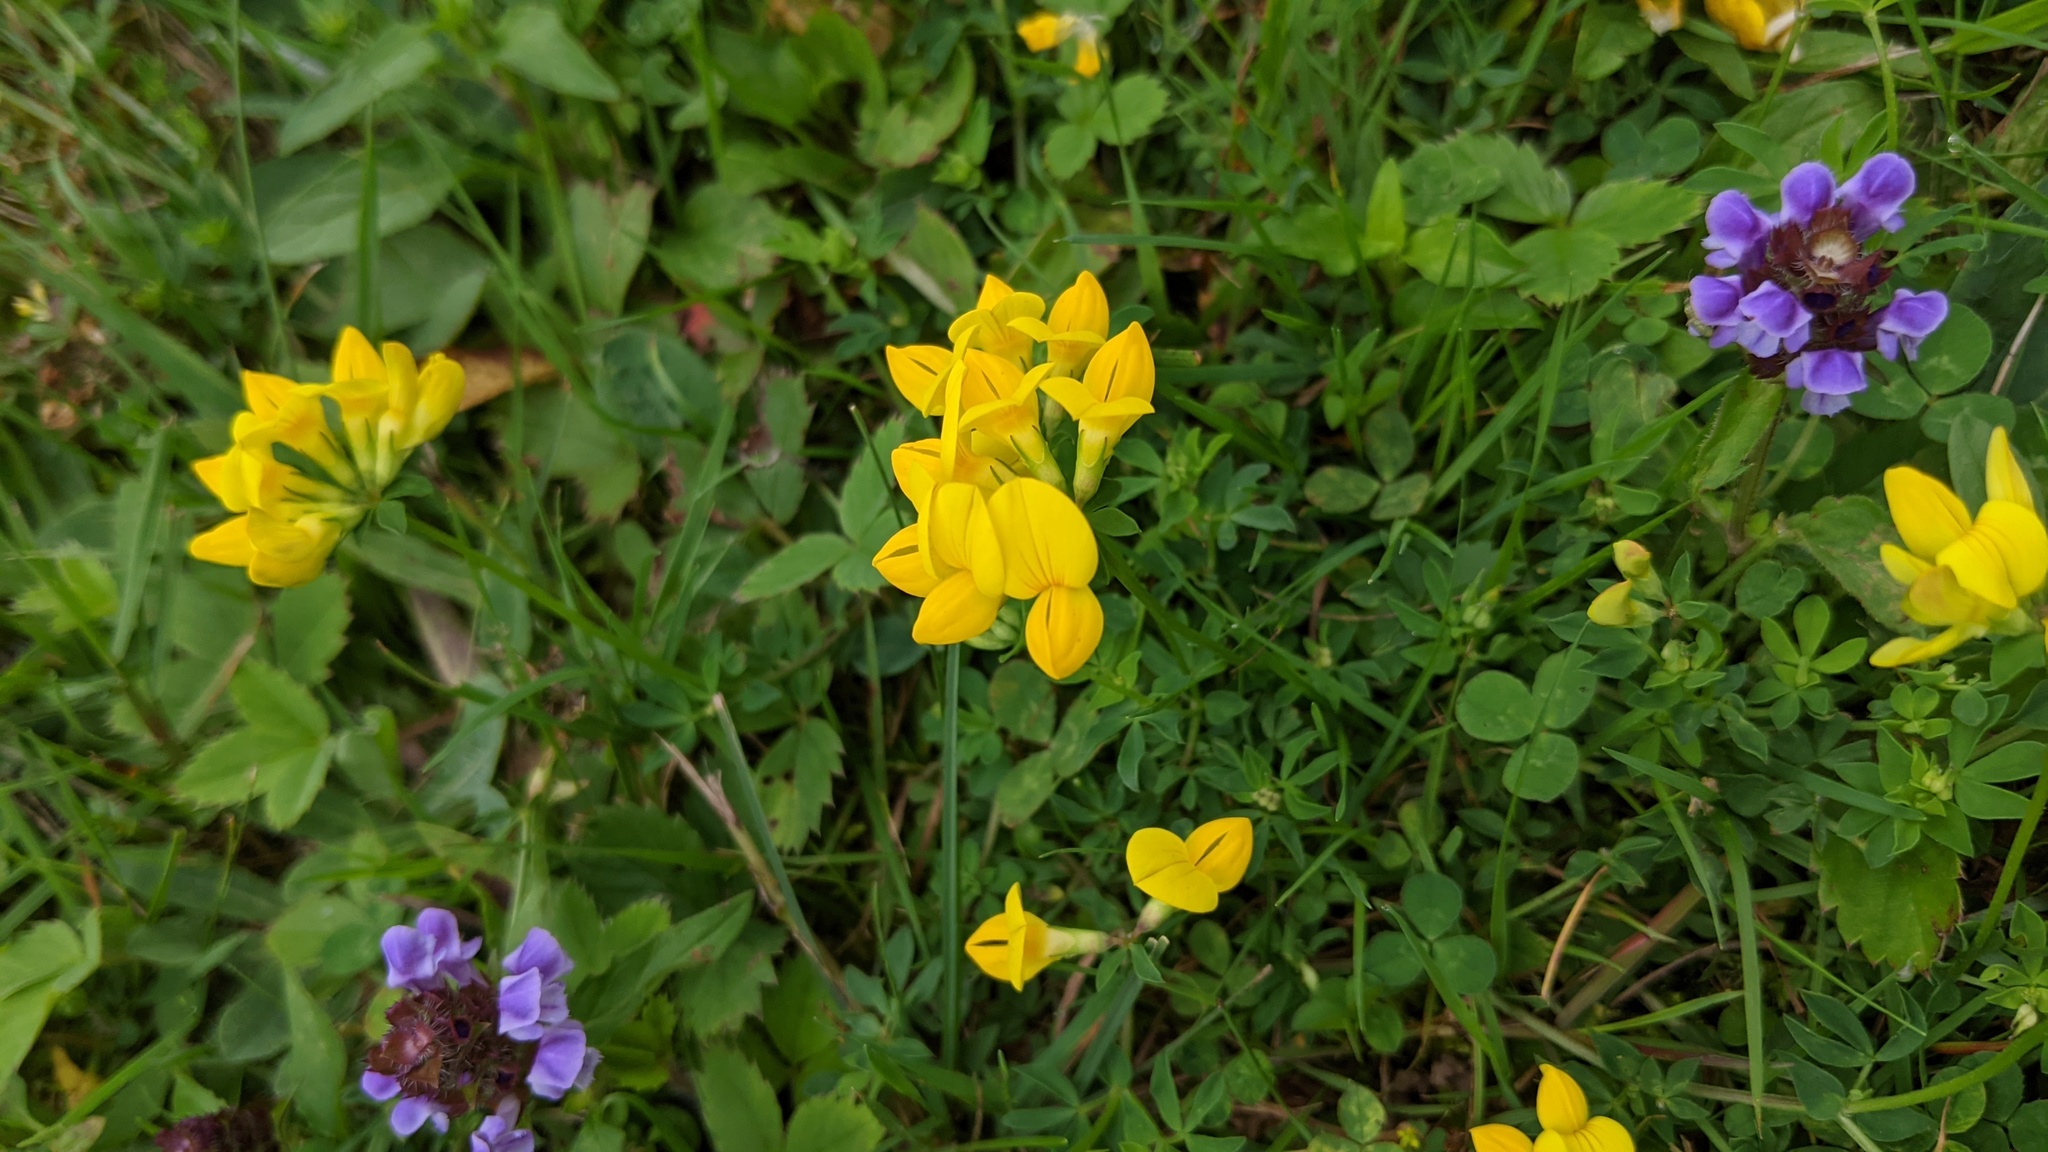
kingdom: Plantae
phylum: Tracheophyta
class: Magnoliopsida
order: Fabales
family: Fabaceae
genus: Lotus
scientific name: Lotus corniculatus
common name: Common bird's-foot-trefoil
